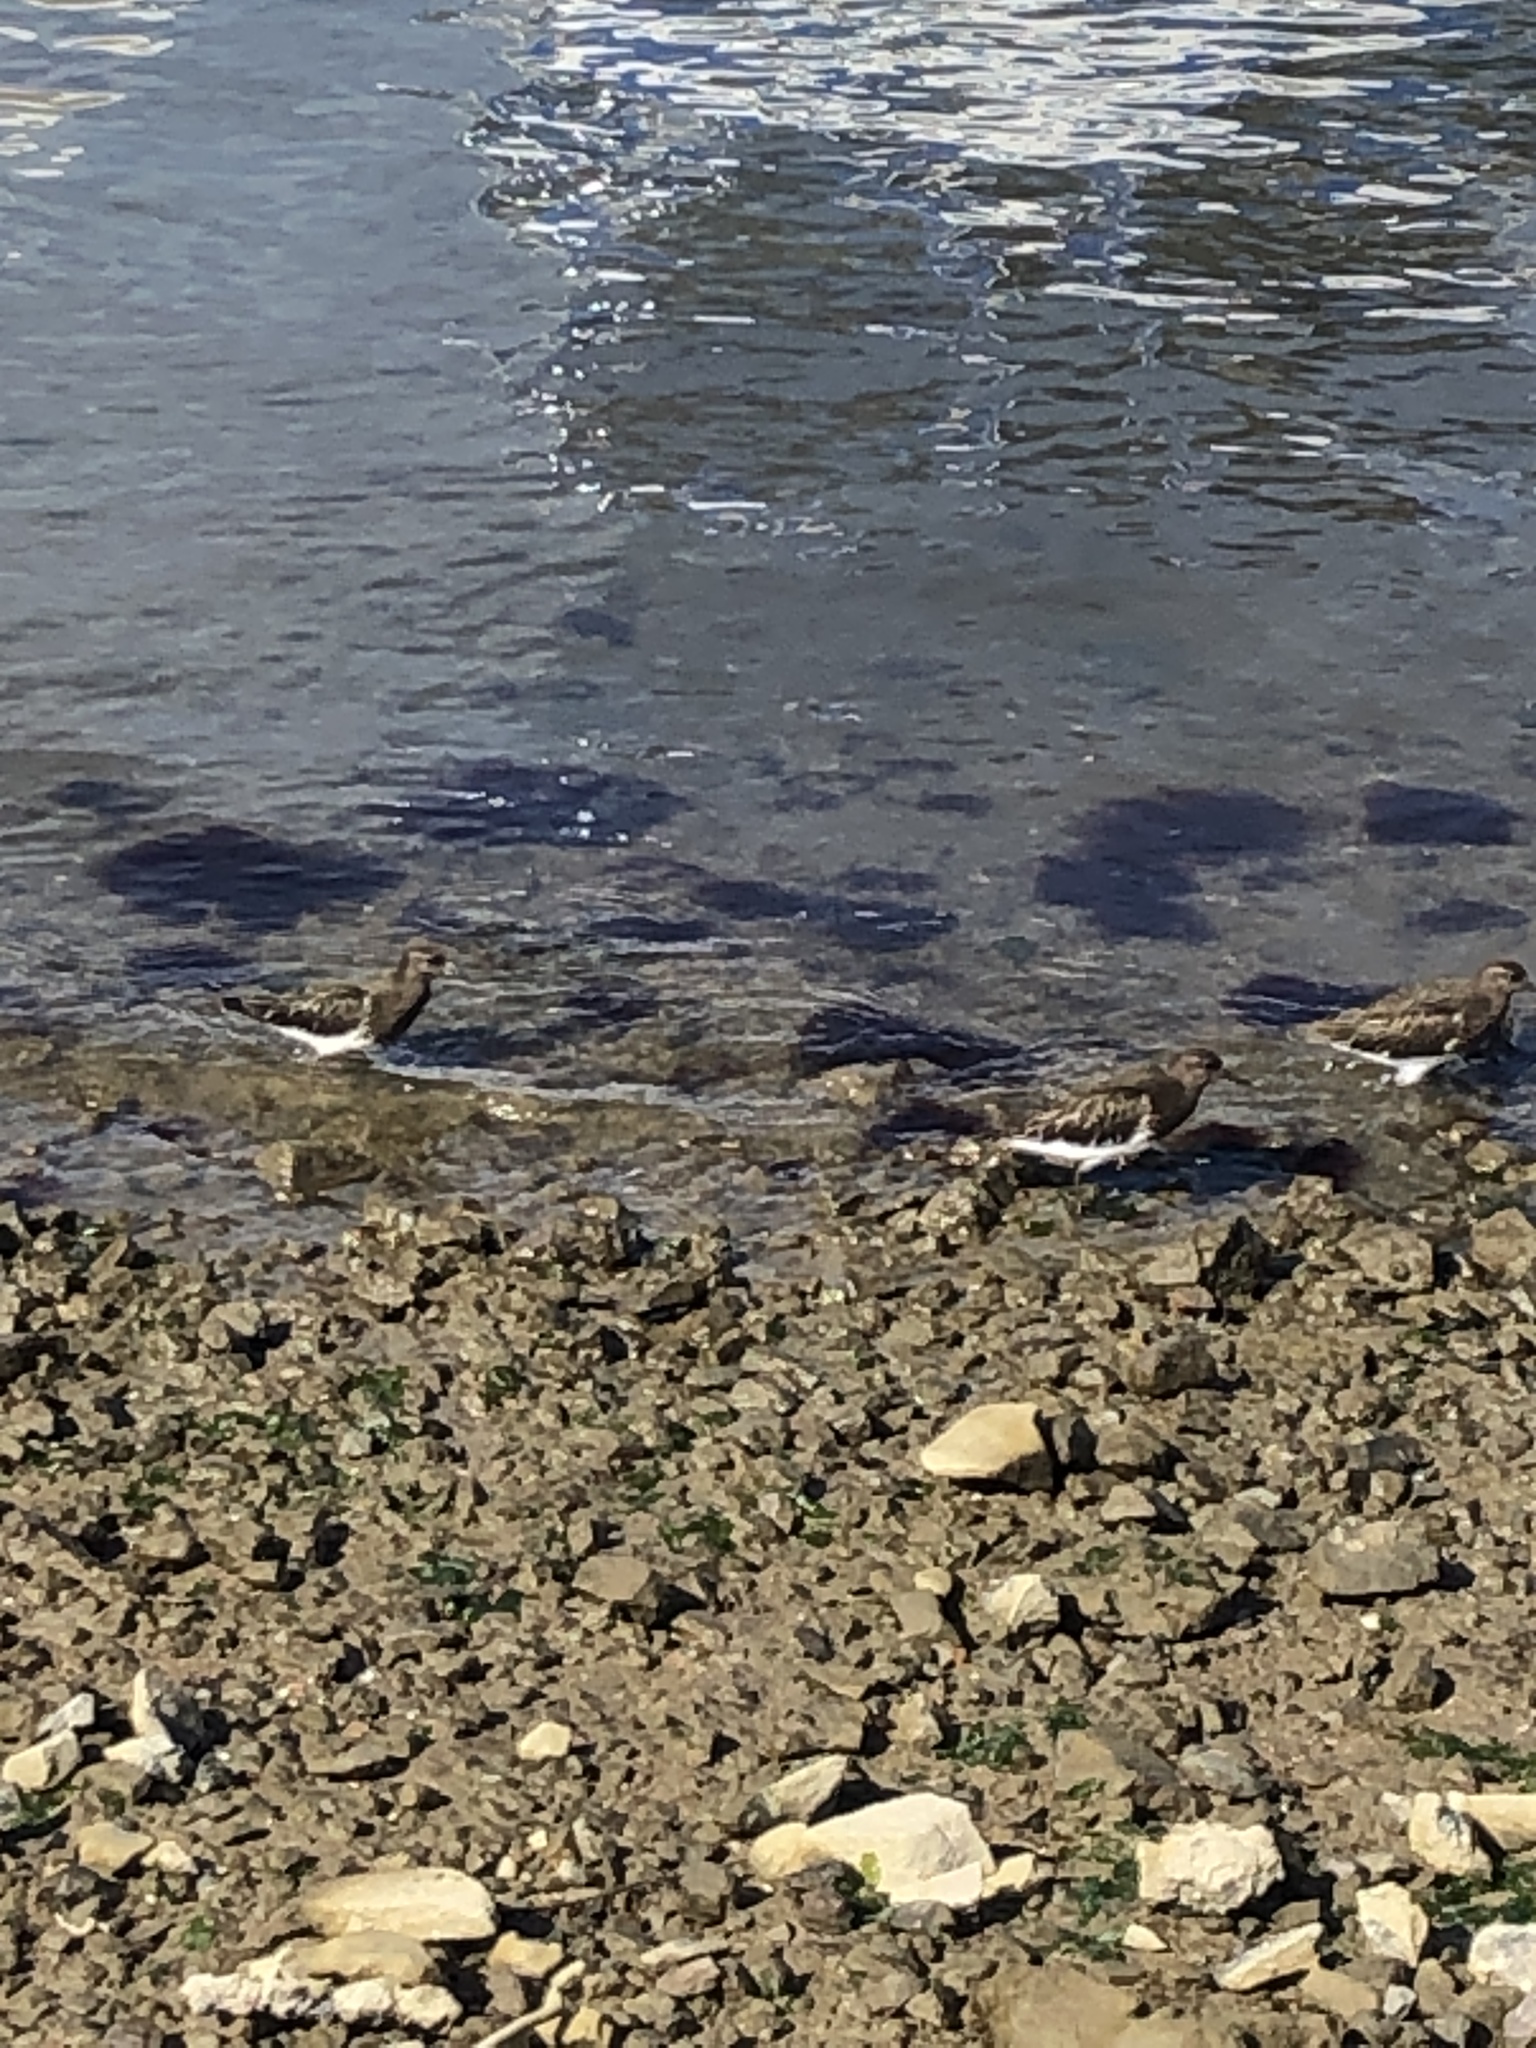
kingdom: Animalia
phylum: Chordata
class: Aves
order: Charadriiformes
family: Scolopacidae
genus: Arenaria
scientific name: Arenaria melanocephala
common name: Black turnstone
